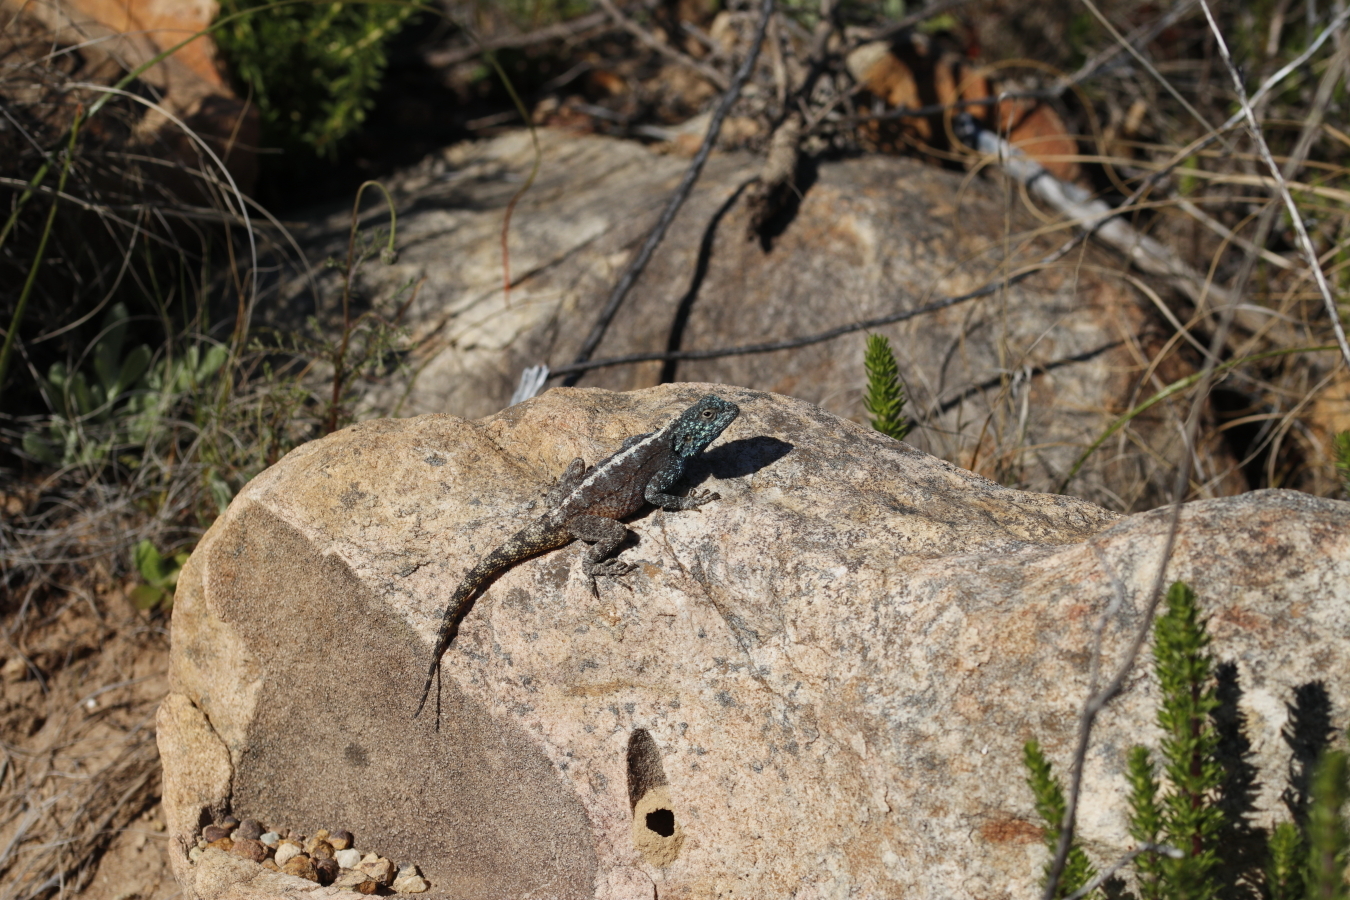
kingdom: Animalia
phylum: Chordata
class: Squamata
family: Agamidae
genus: Agama
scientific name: Agama atra
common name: Southern african rock agama
